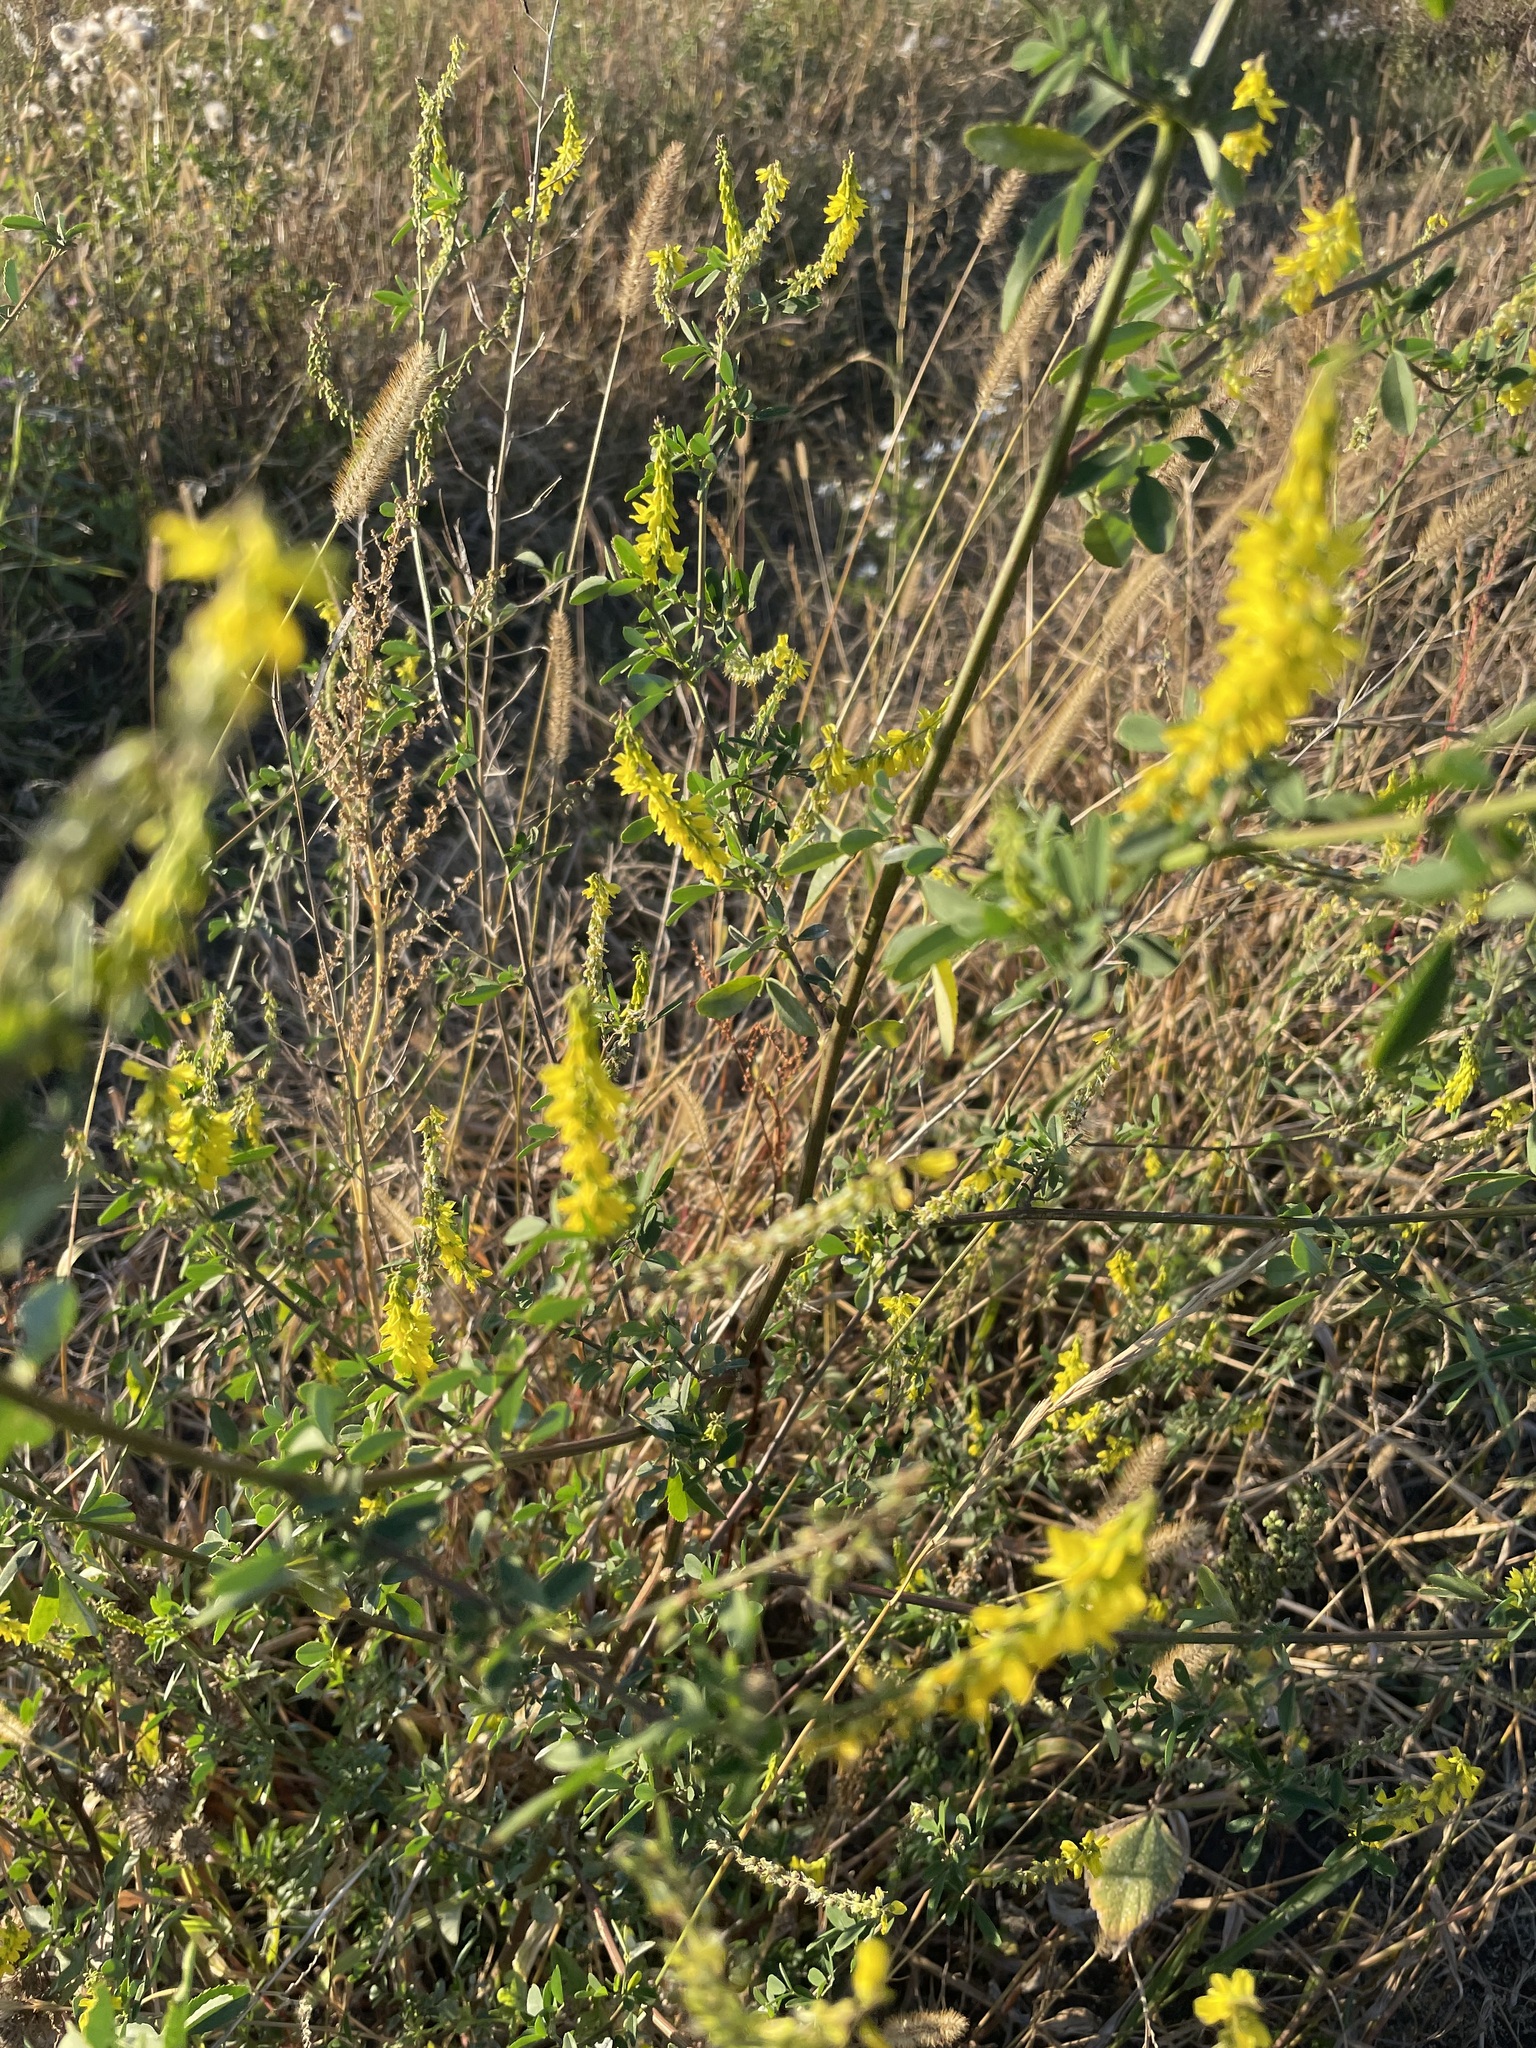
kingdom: Plantae
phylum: Tracheophyta
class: Magnoliopsida
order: Fabales
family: Fabaceae
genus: Melilotus
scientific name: Melilotus officinalis
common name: Sweetclover
